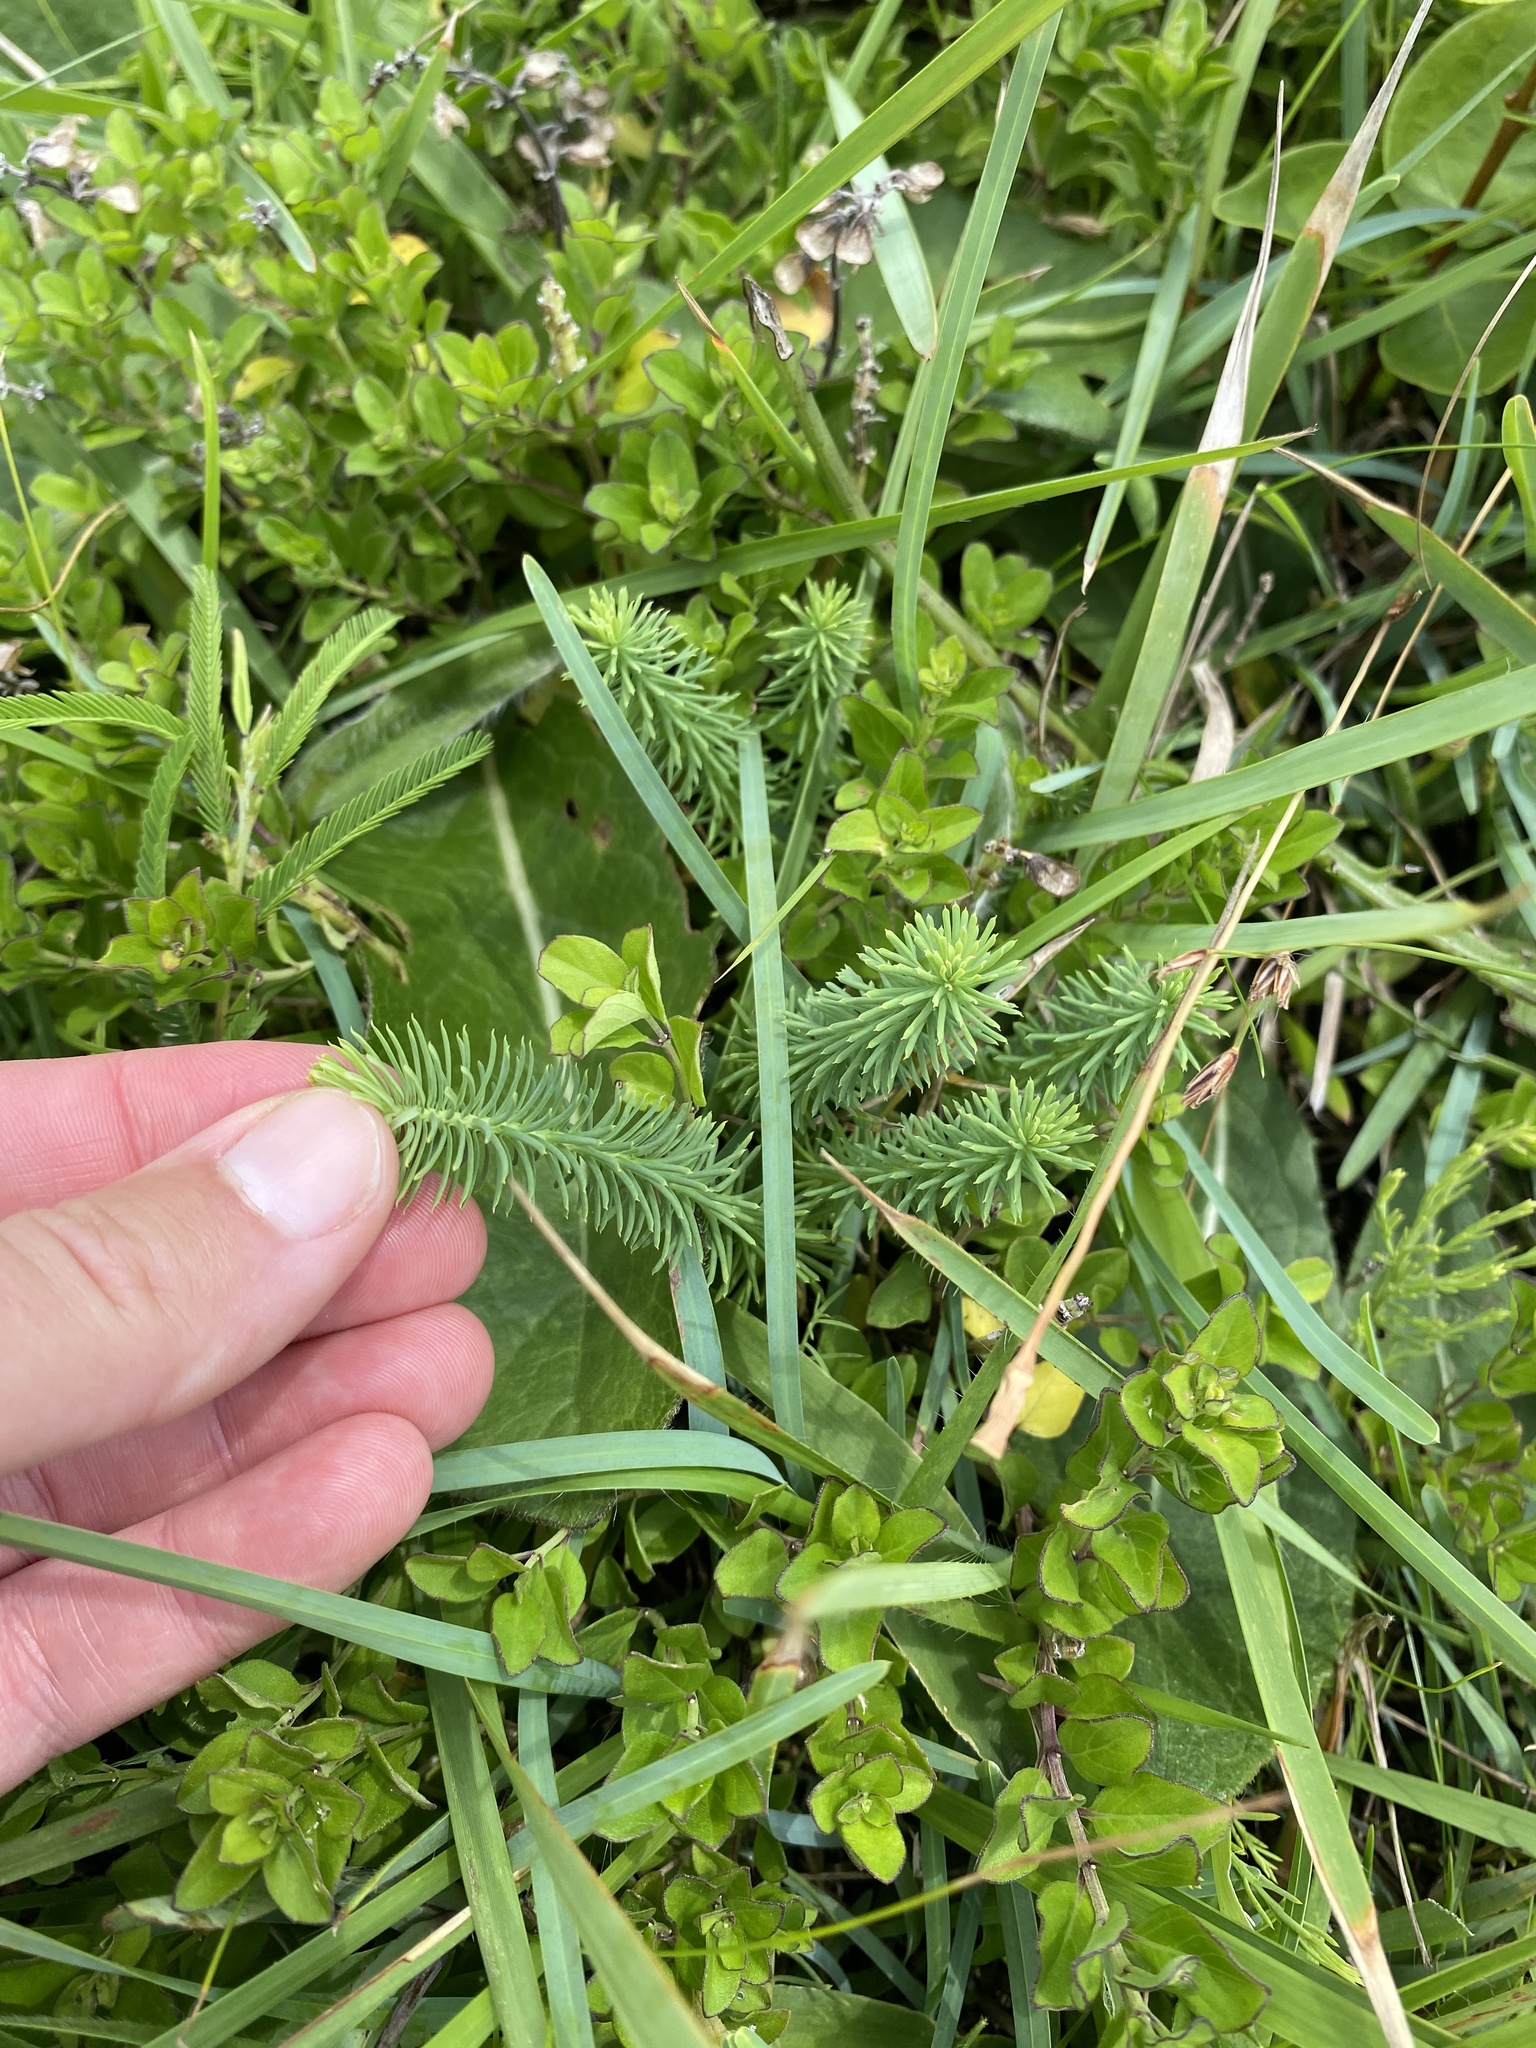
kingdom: Plantae
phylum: Tracheophyta
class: Magnoliopsida
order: Malpighiales
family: Euphorbiaceae
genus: Euphorbia
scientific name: Euphorbia natalensis
